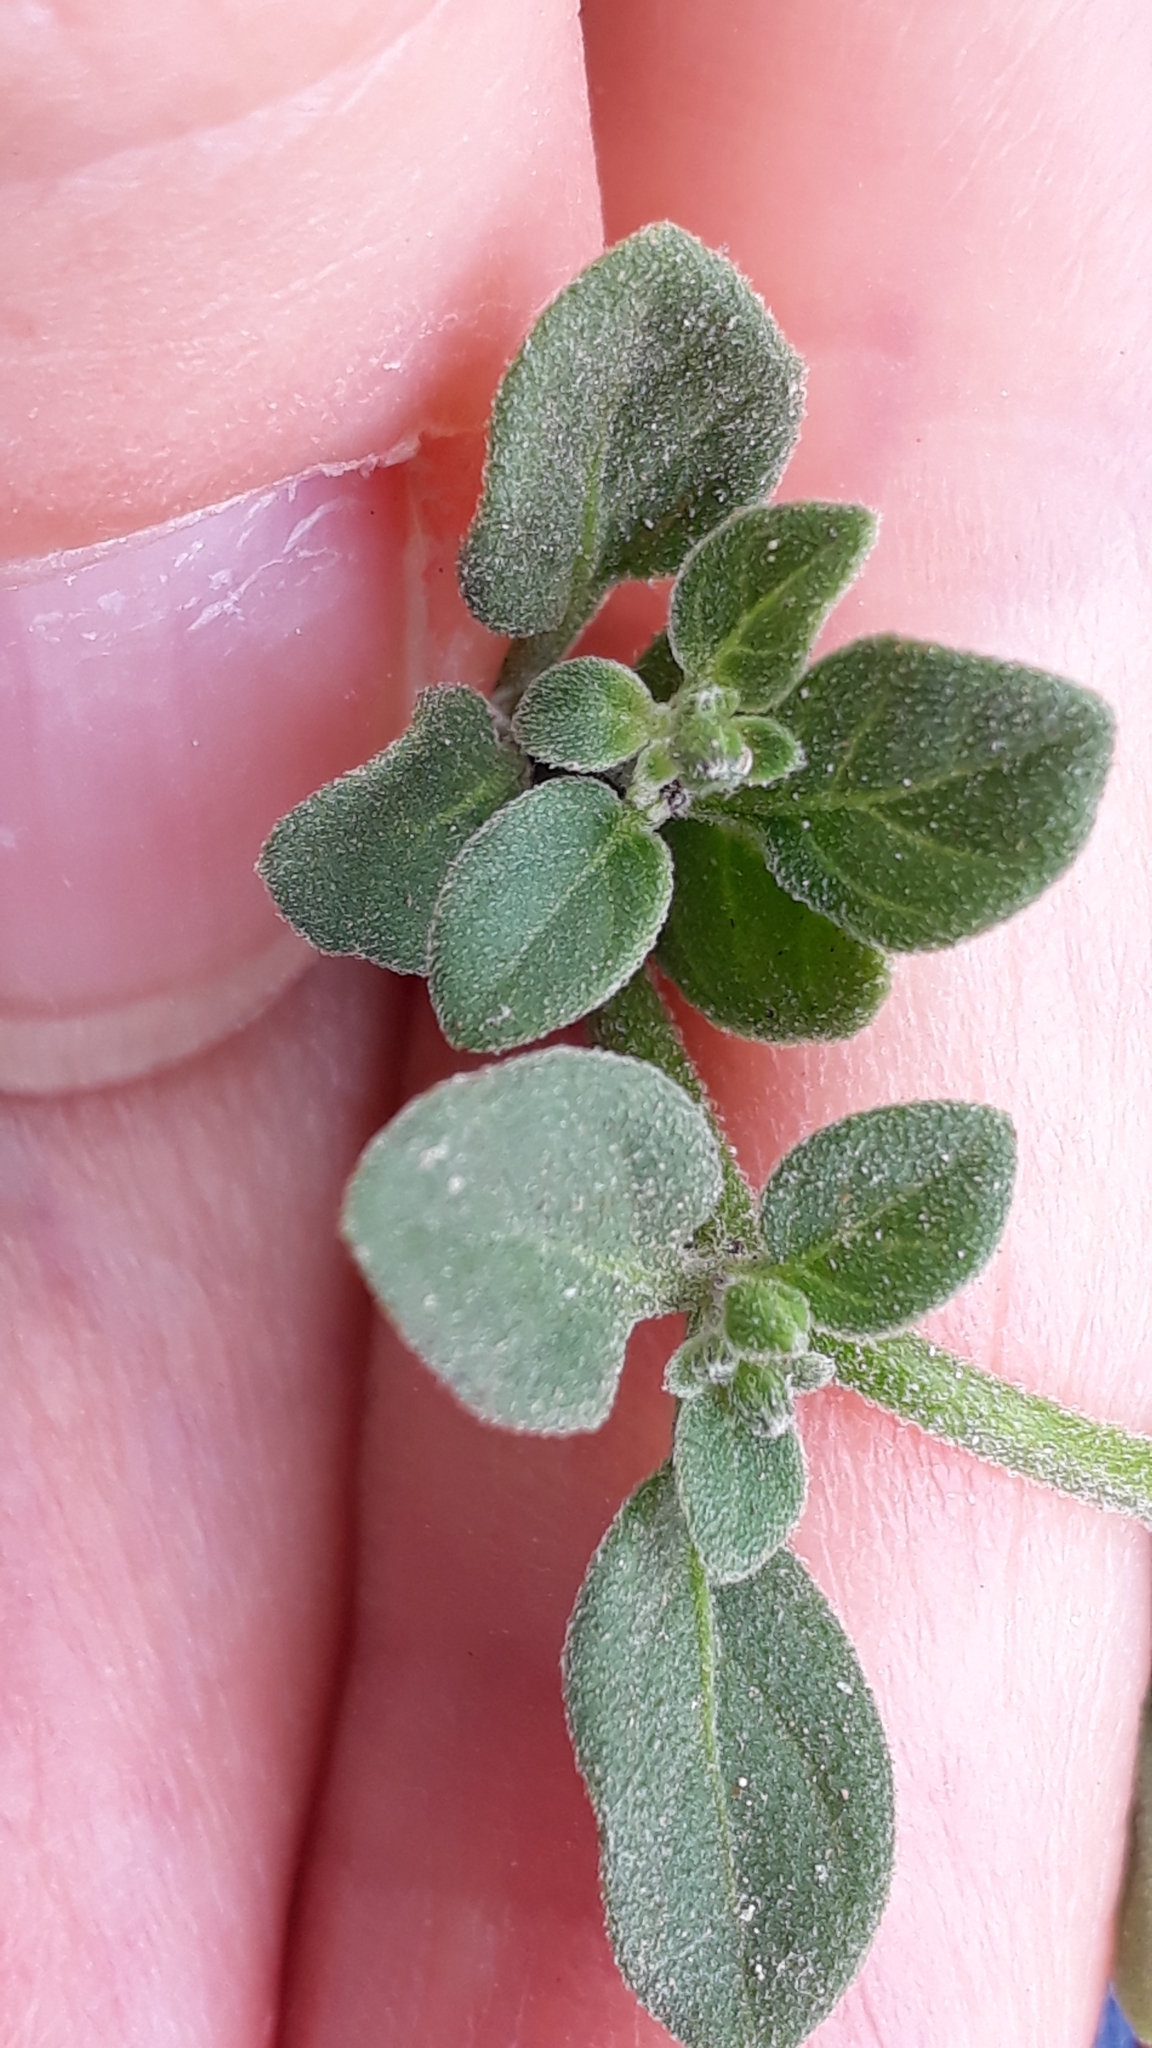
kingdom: Plantae
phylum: Tracheophyta
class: Magnoliopsida
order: Solanales
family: Solanaceae
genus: Salpichroa
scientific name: Salpichroa origanifolia
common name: Lily-of-the-valley-vine
